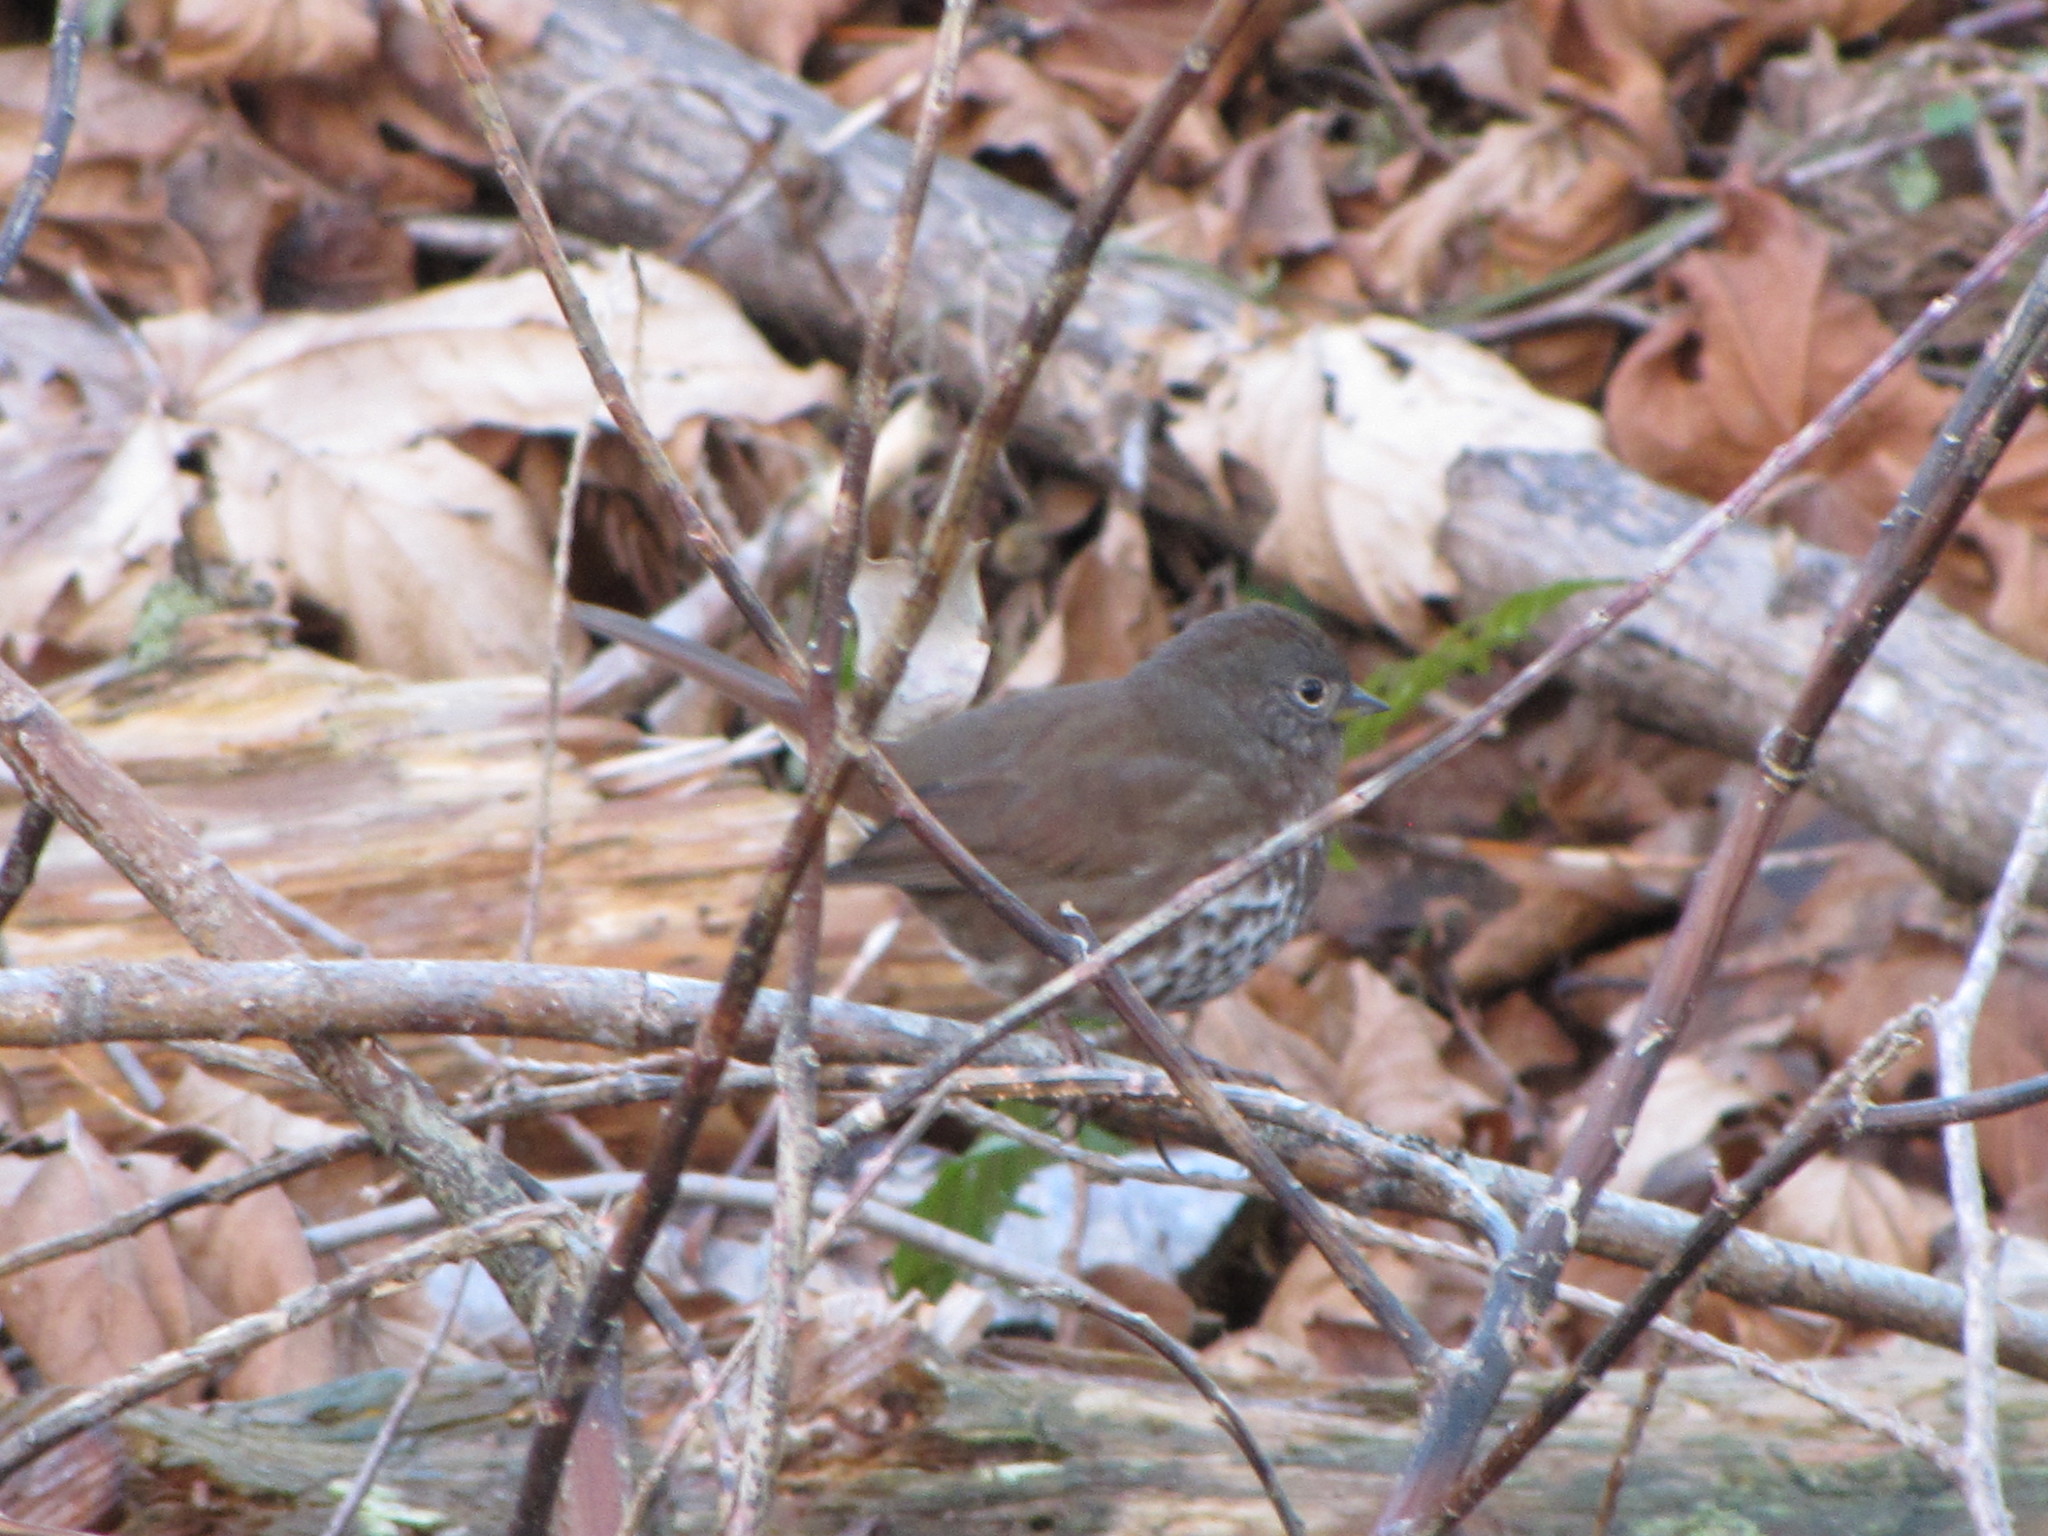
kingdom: Animalia
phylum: Chordata
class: Aves
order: Passeriformes
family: Passerellidae
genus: Passerella
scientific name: Passerella iliaca
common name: Fox sparrow
